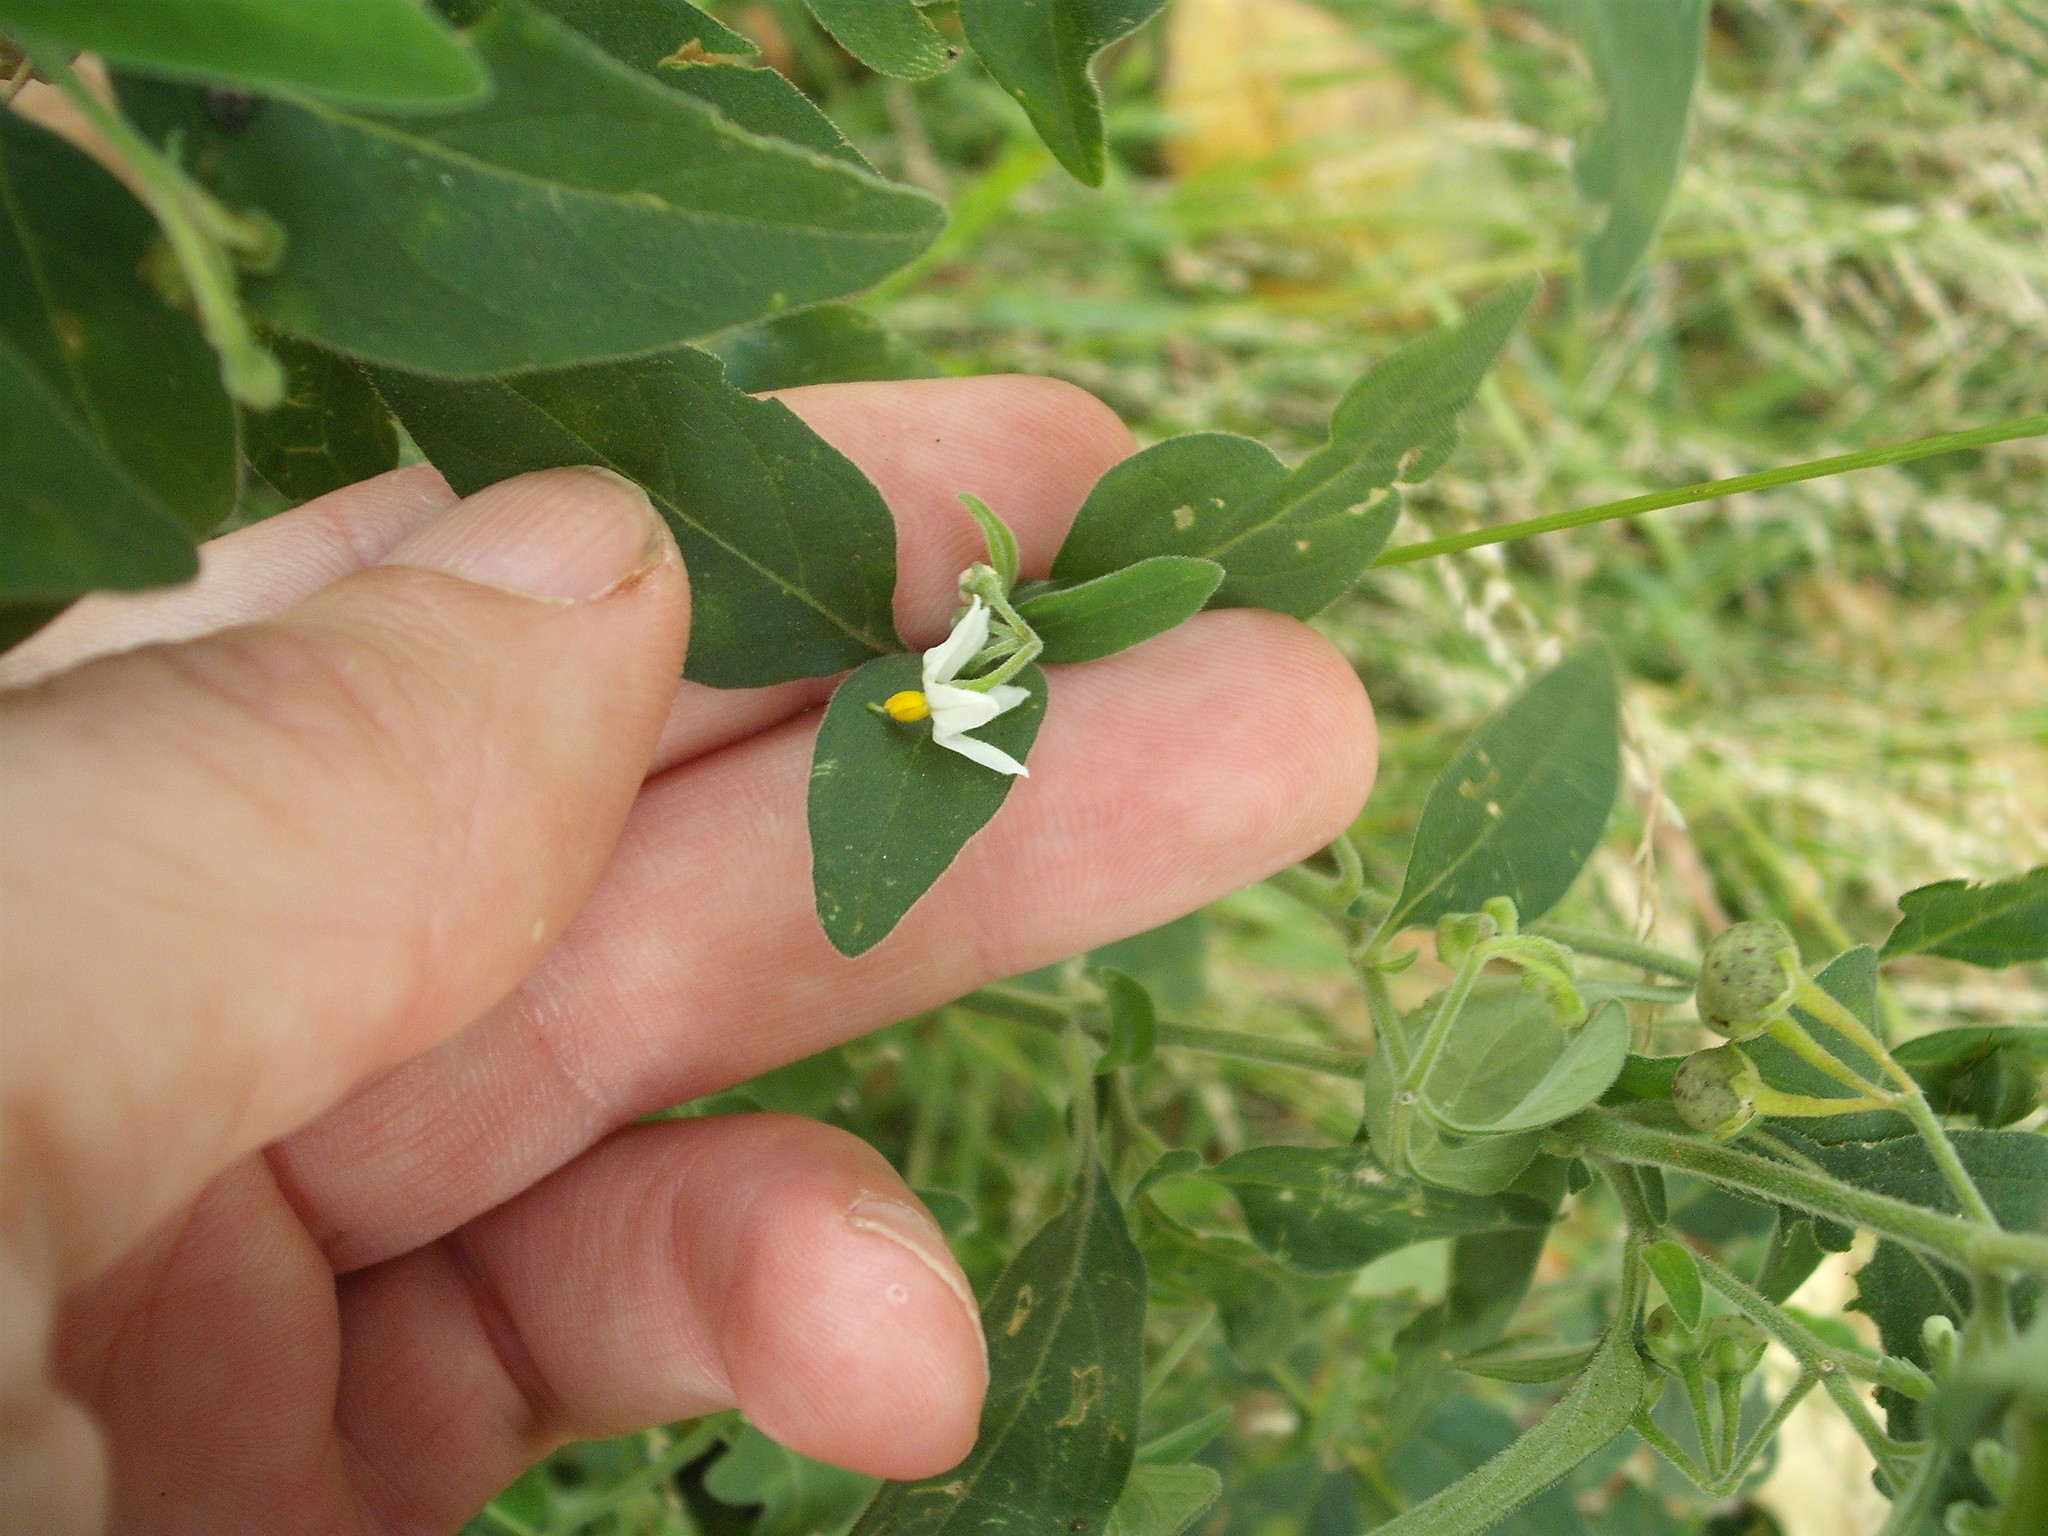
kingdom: Plantae
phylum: Tracheophyta
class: Magnoliopsida
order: Solanales
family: Solanaceae
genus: Solanum
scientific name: Solanum chenopodioides
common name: Tall nightshade
